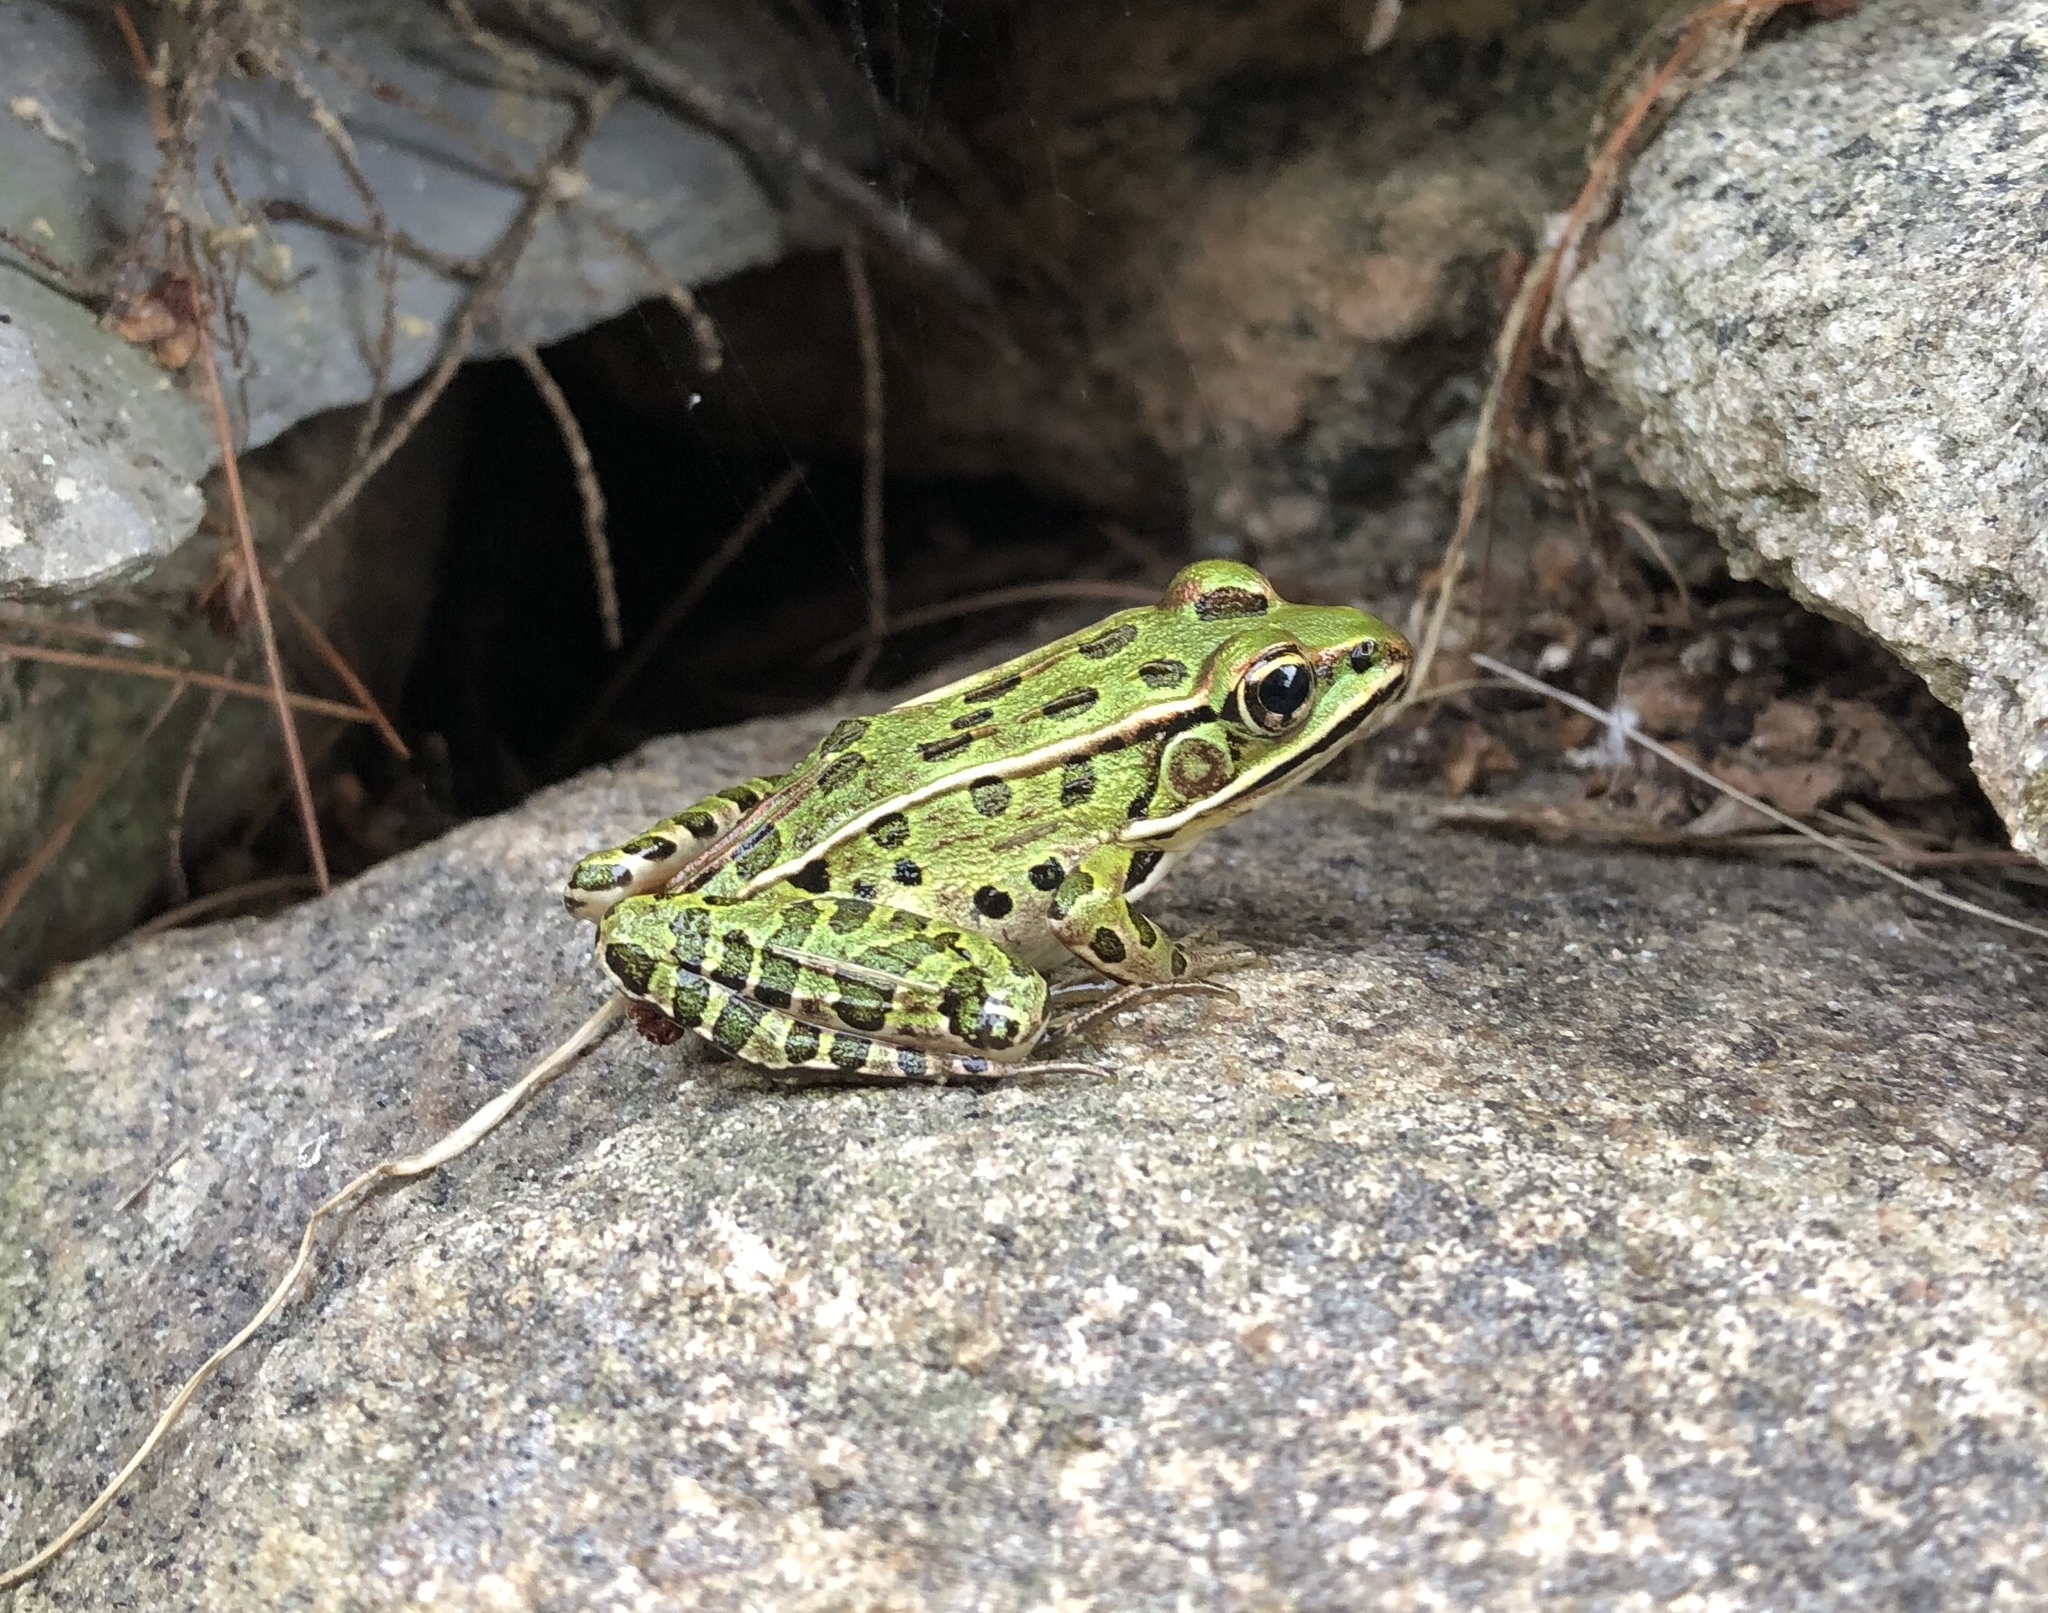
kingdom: Animalia
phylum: Chordata
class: Amphibia
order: Anura
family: Ranidae
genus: Lithobates
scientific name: Lithobates pipiens
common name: Northern leopard frog
